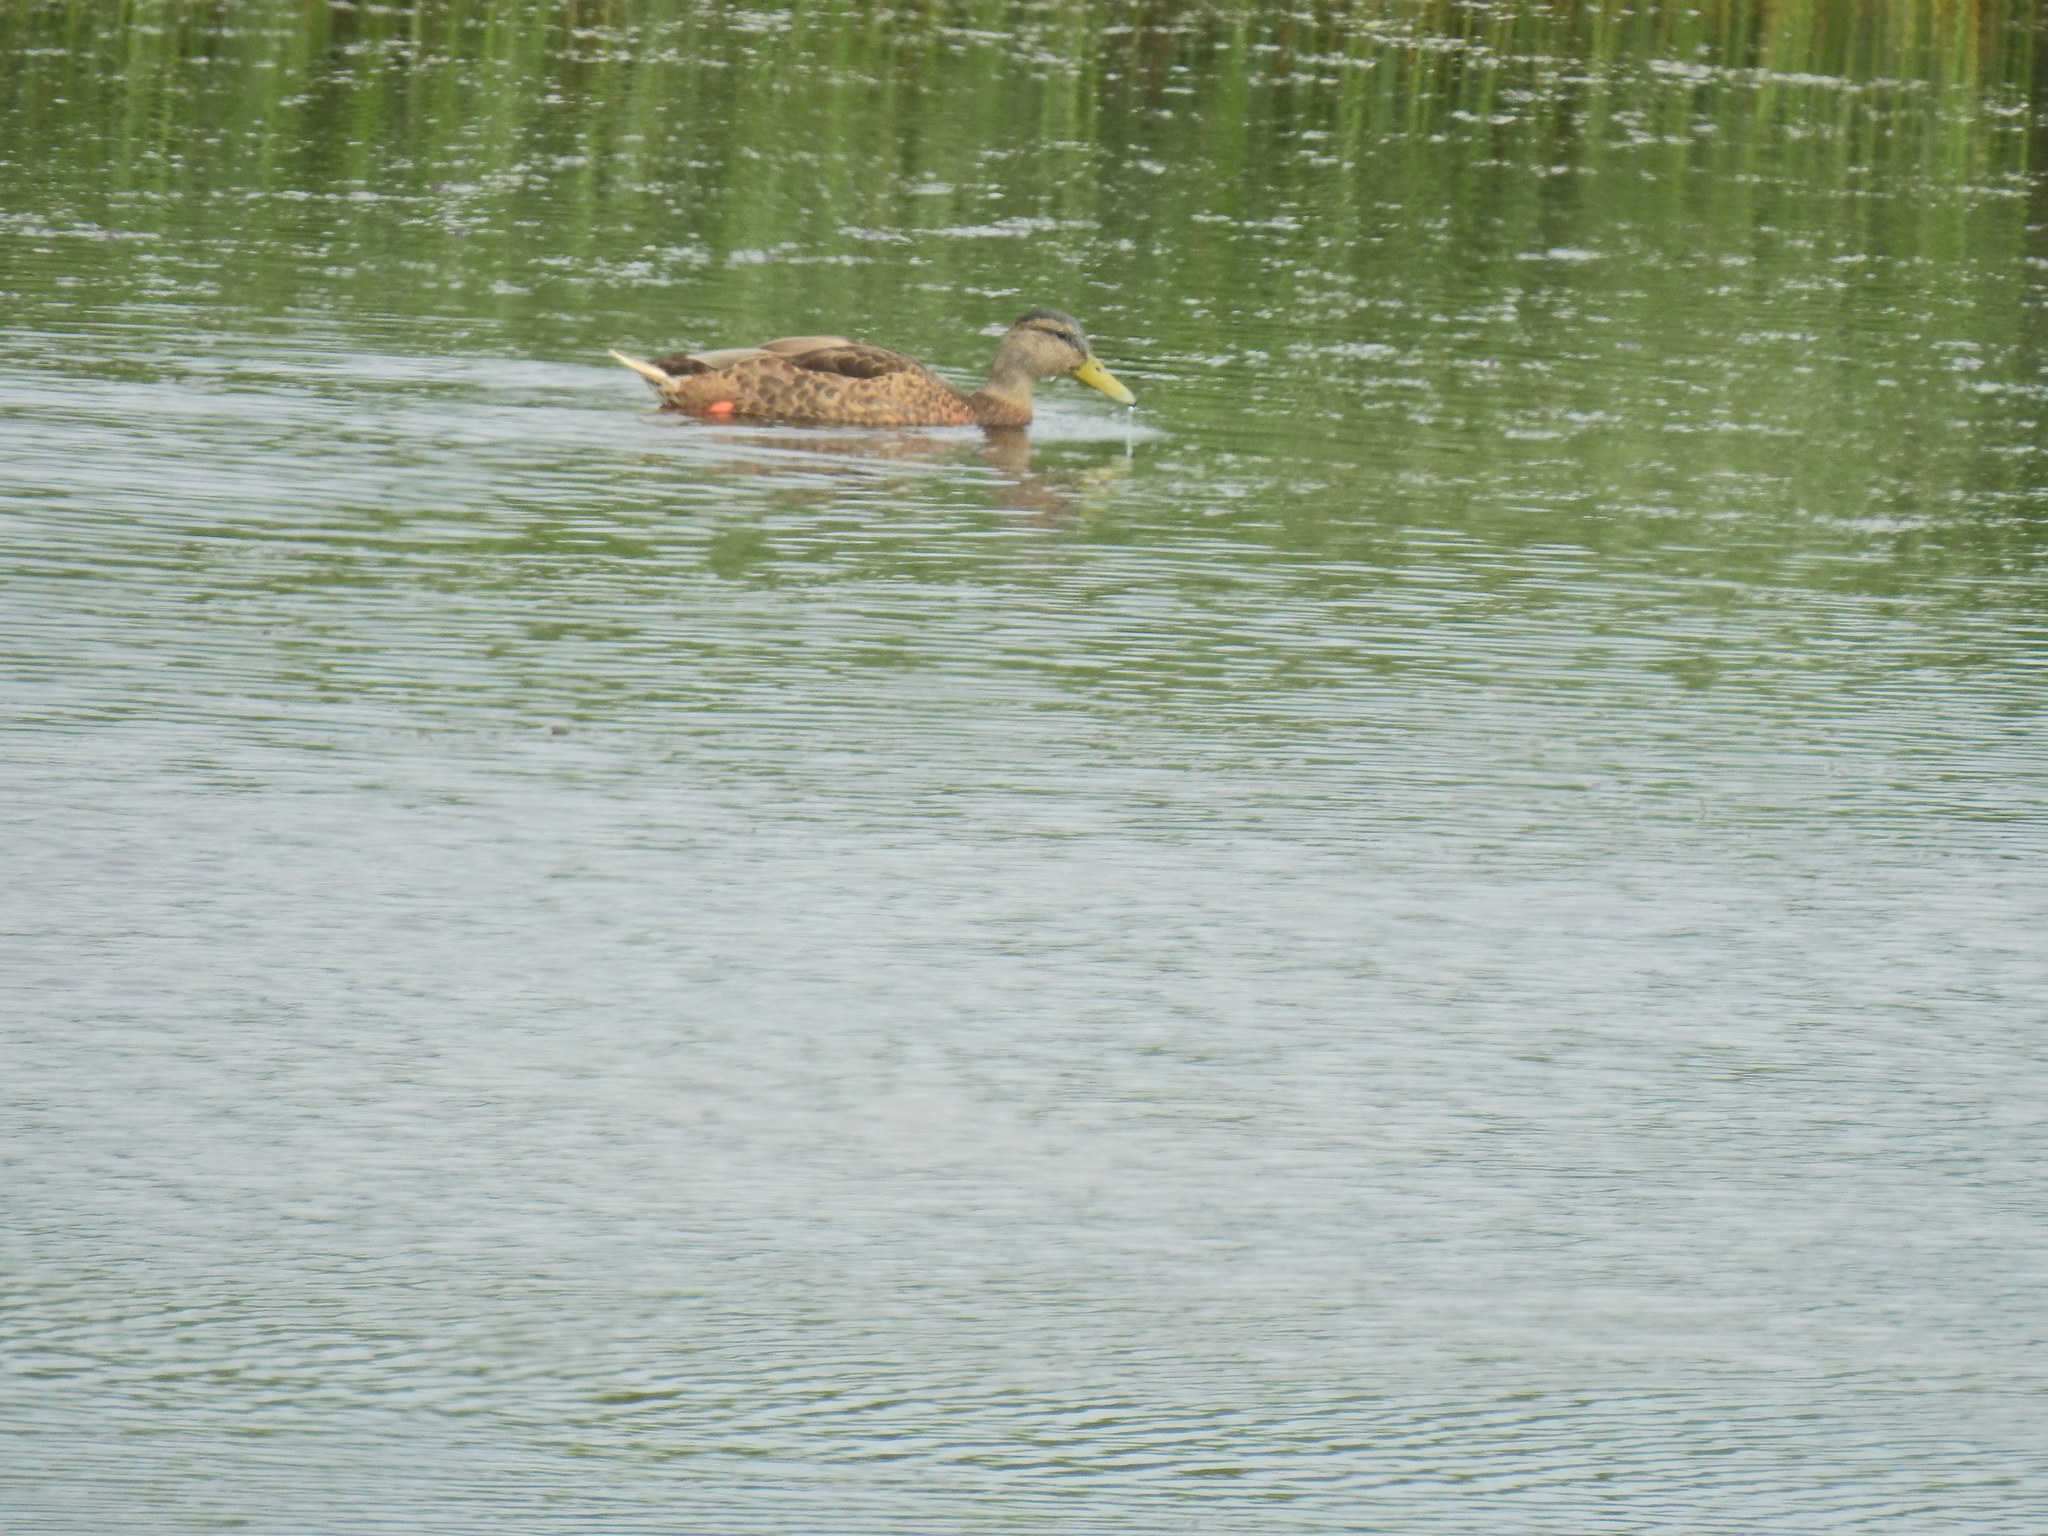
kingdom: Animalia
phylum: Chordata
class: Aves
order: Anseriformes
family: Anatidae
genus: Anas
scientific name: Anas platyrhynchos
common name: Mallard
